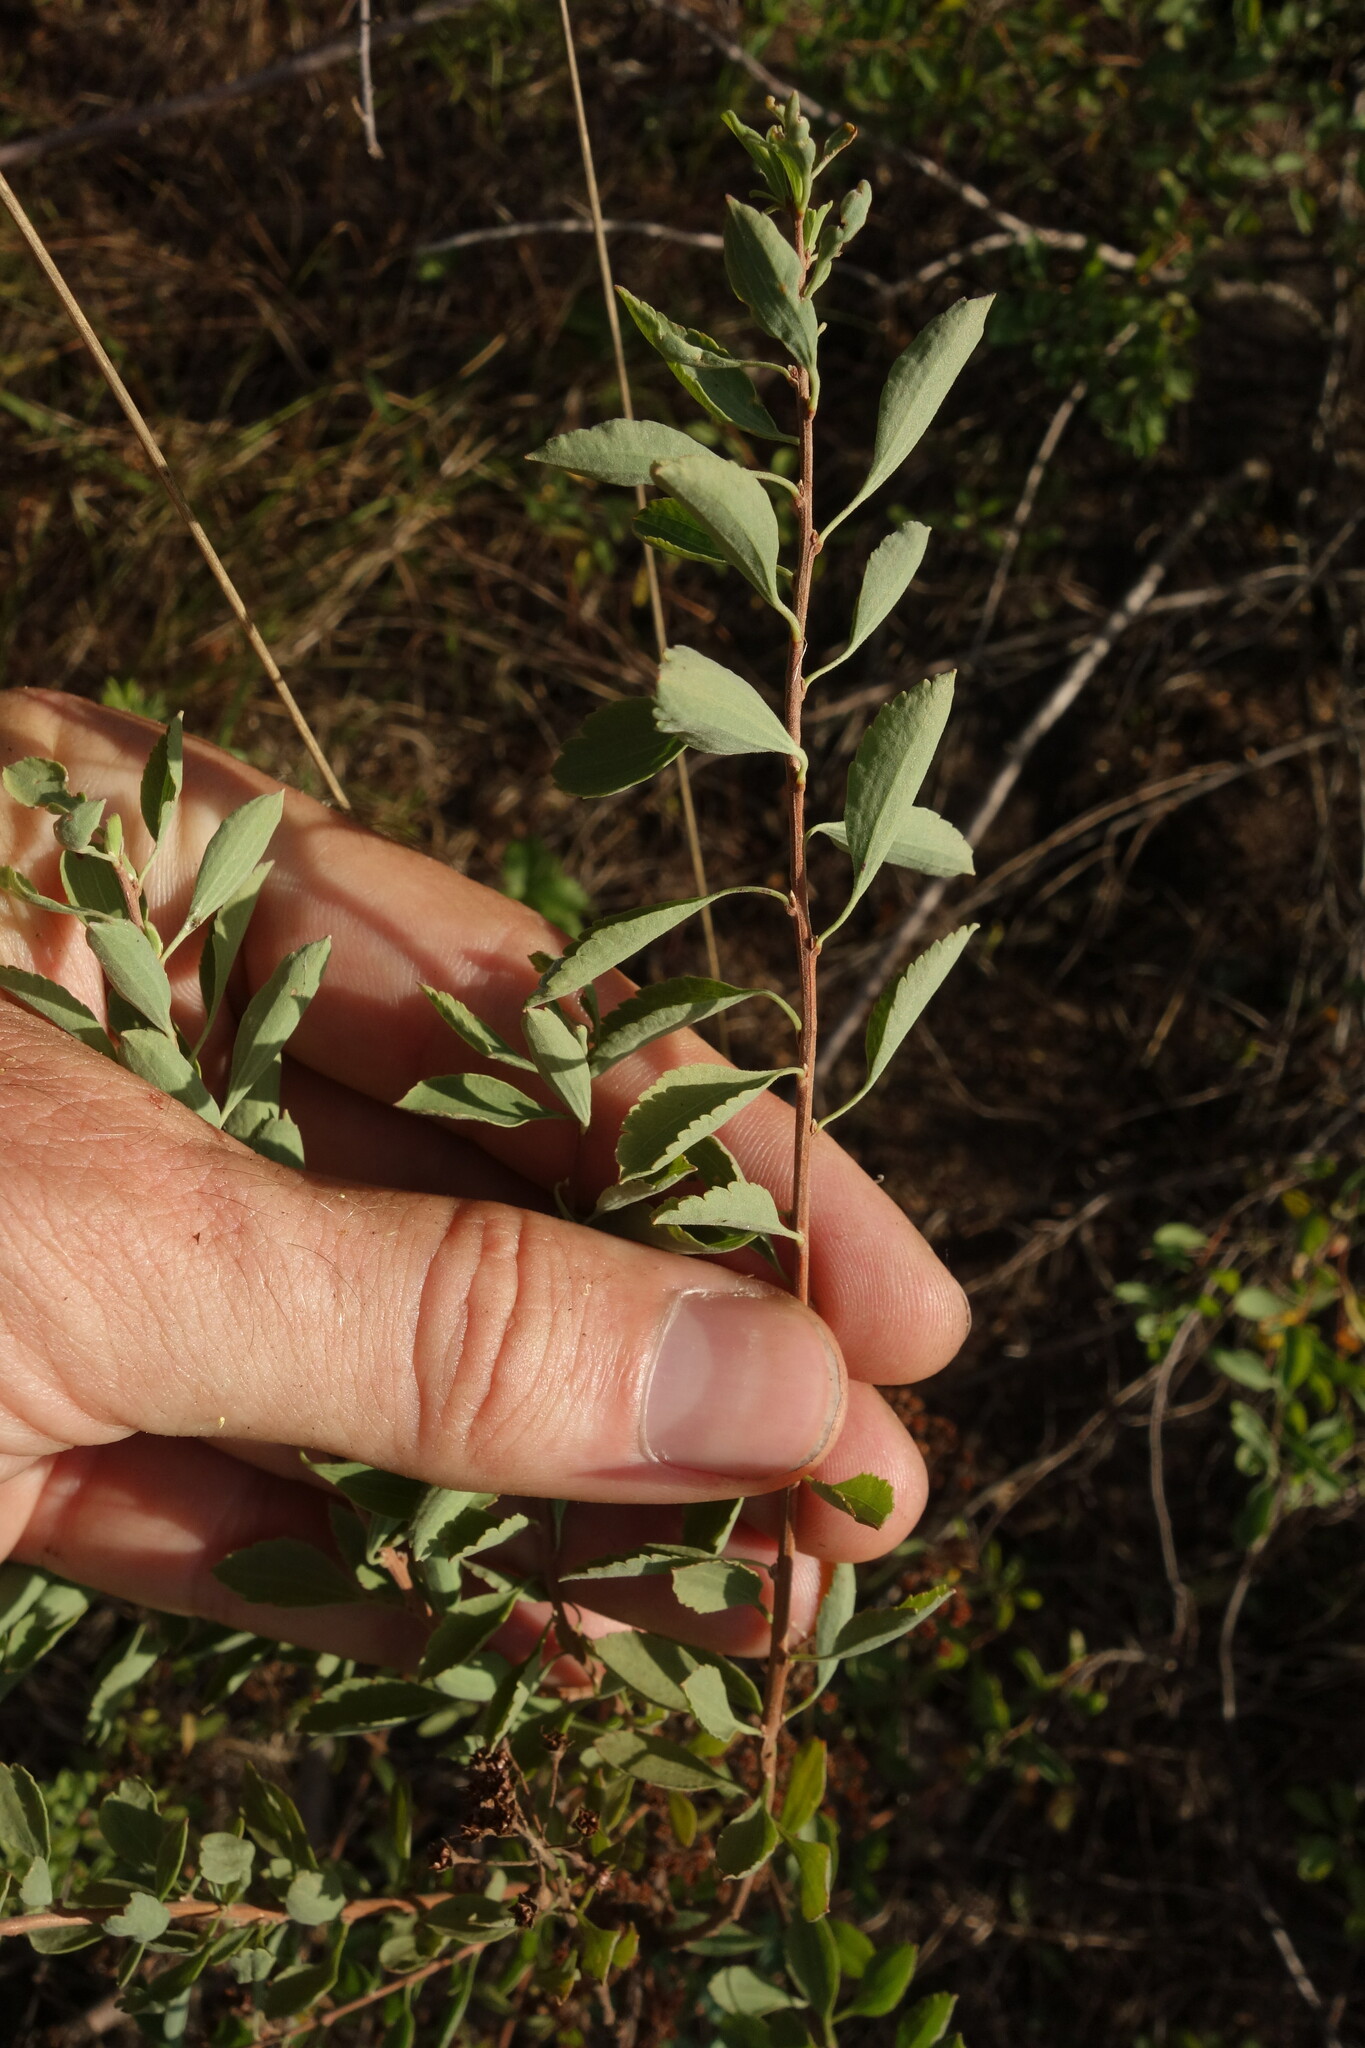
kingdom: Plantae
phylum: Tracheophyta
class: Magnoliopsida
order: Rosales
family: Rosaceae
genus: Spiraea
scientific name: Spiraea crenata
